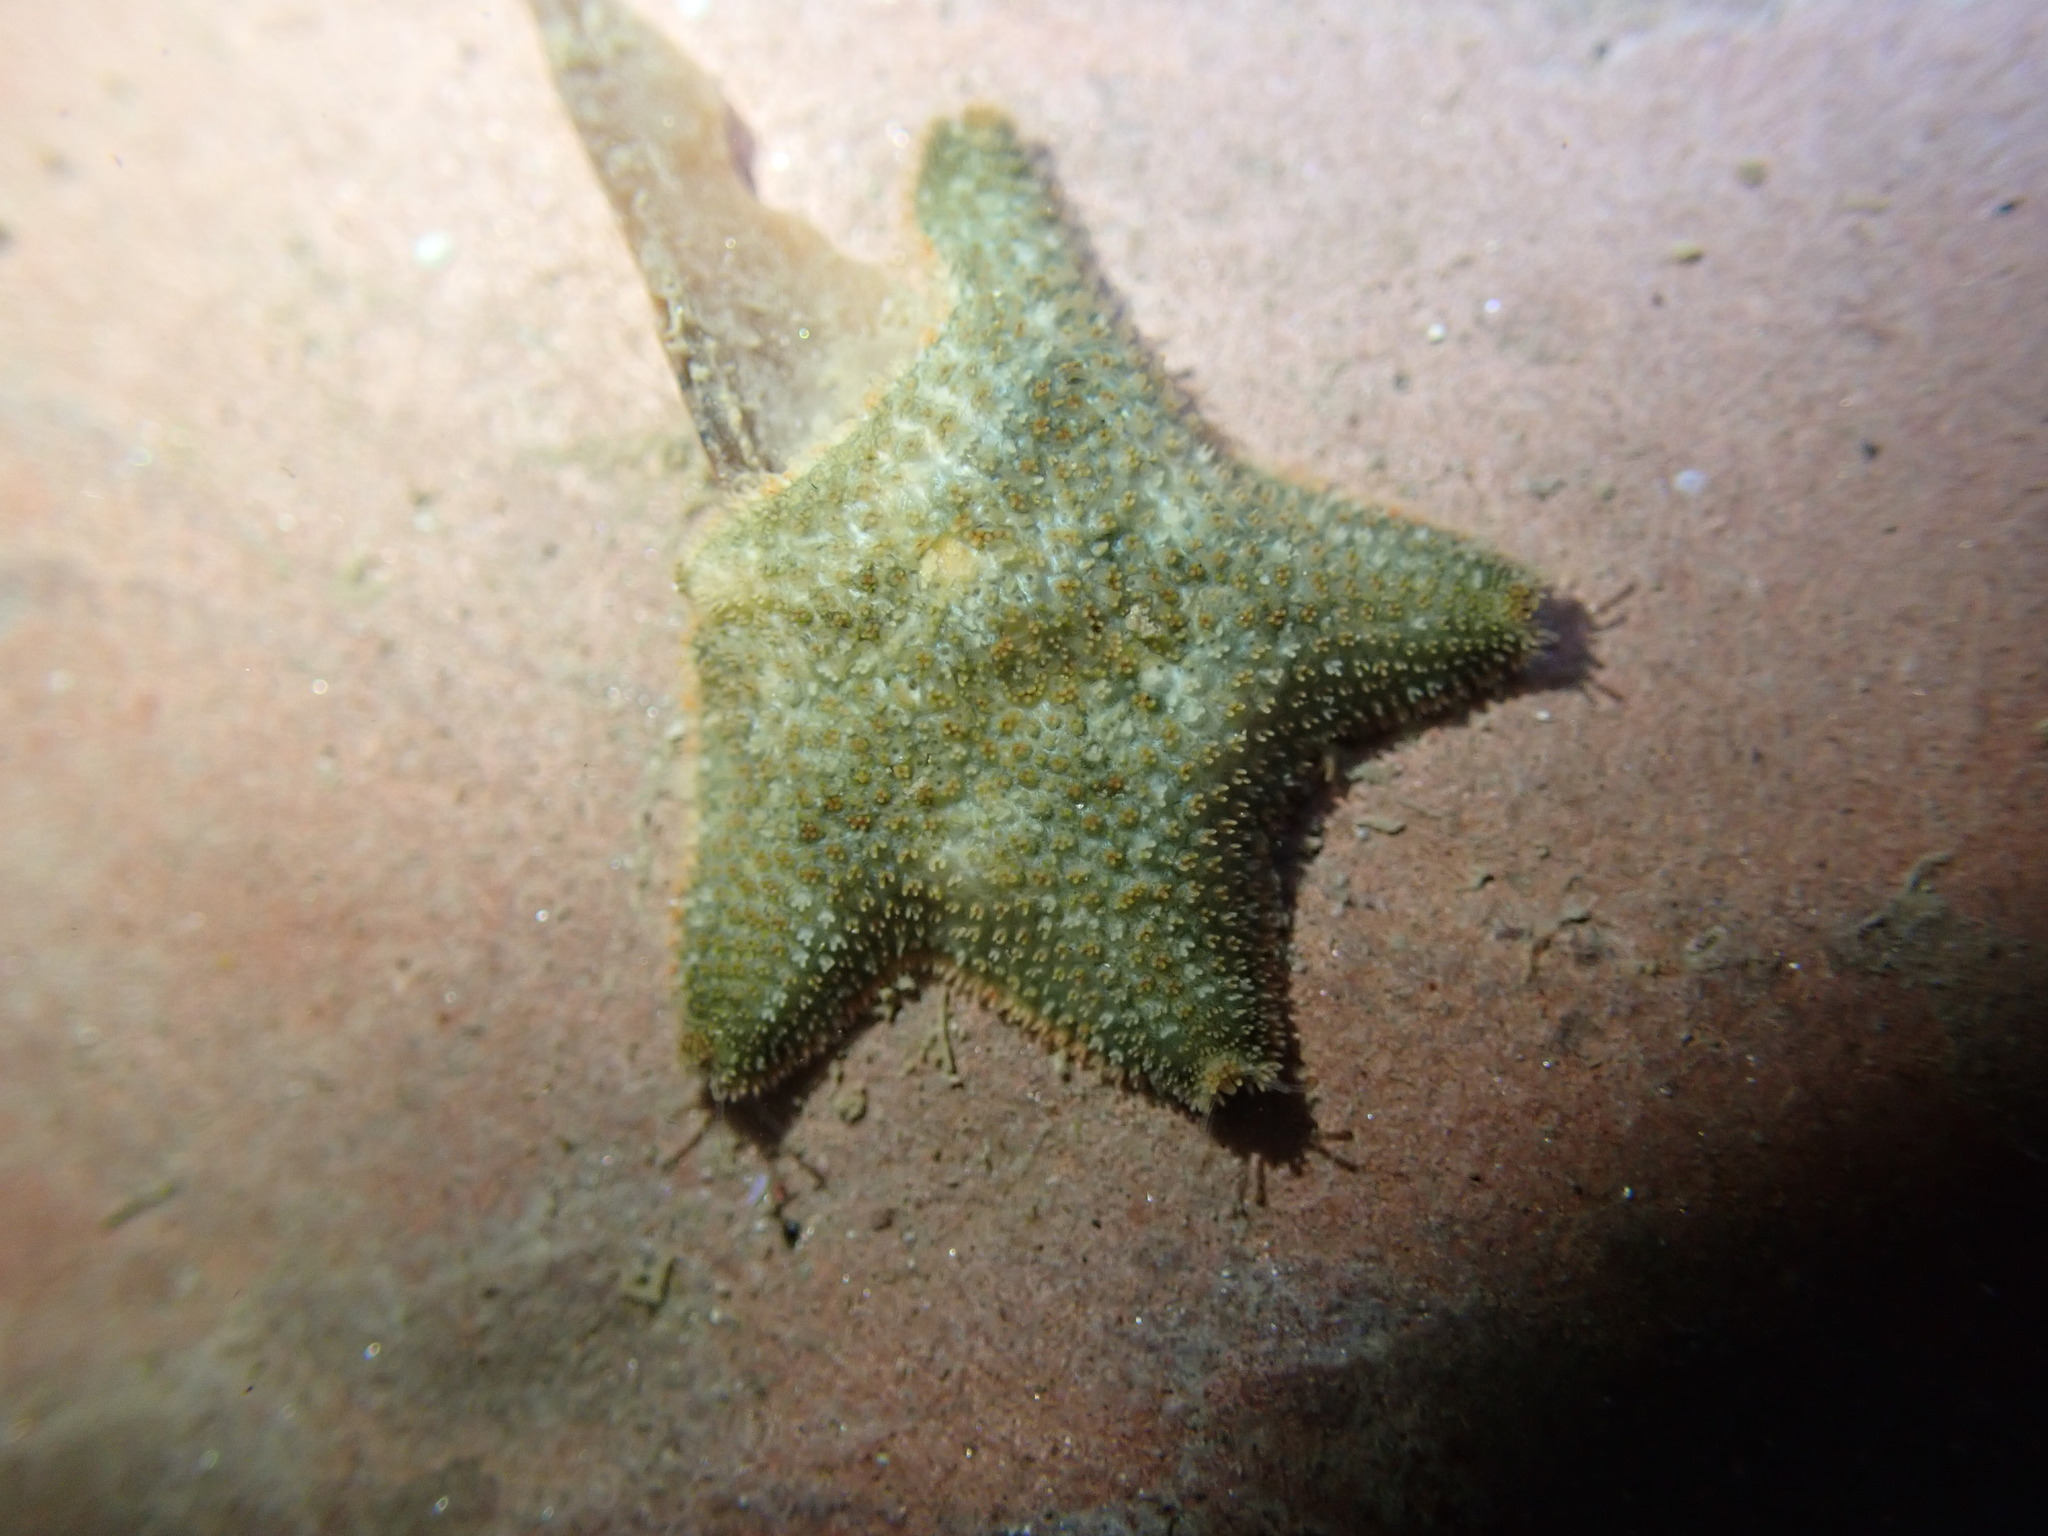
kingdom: Animalia
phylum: Echinodermata
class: Asteroidea
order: Valvatida
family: Asterinidae
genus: Asterina
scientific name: Asterina gibbosa
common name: Cushion star
